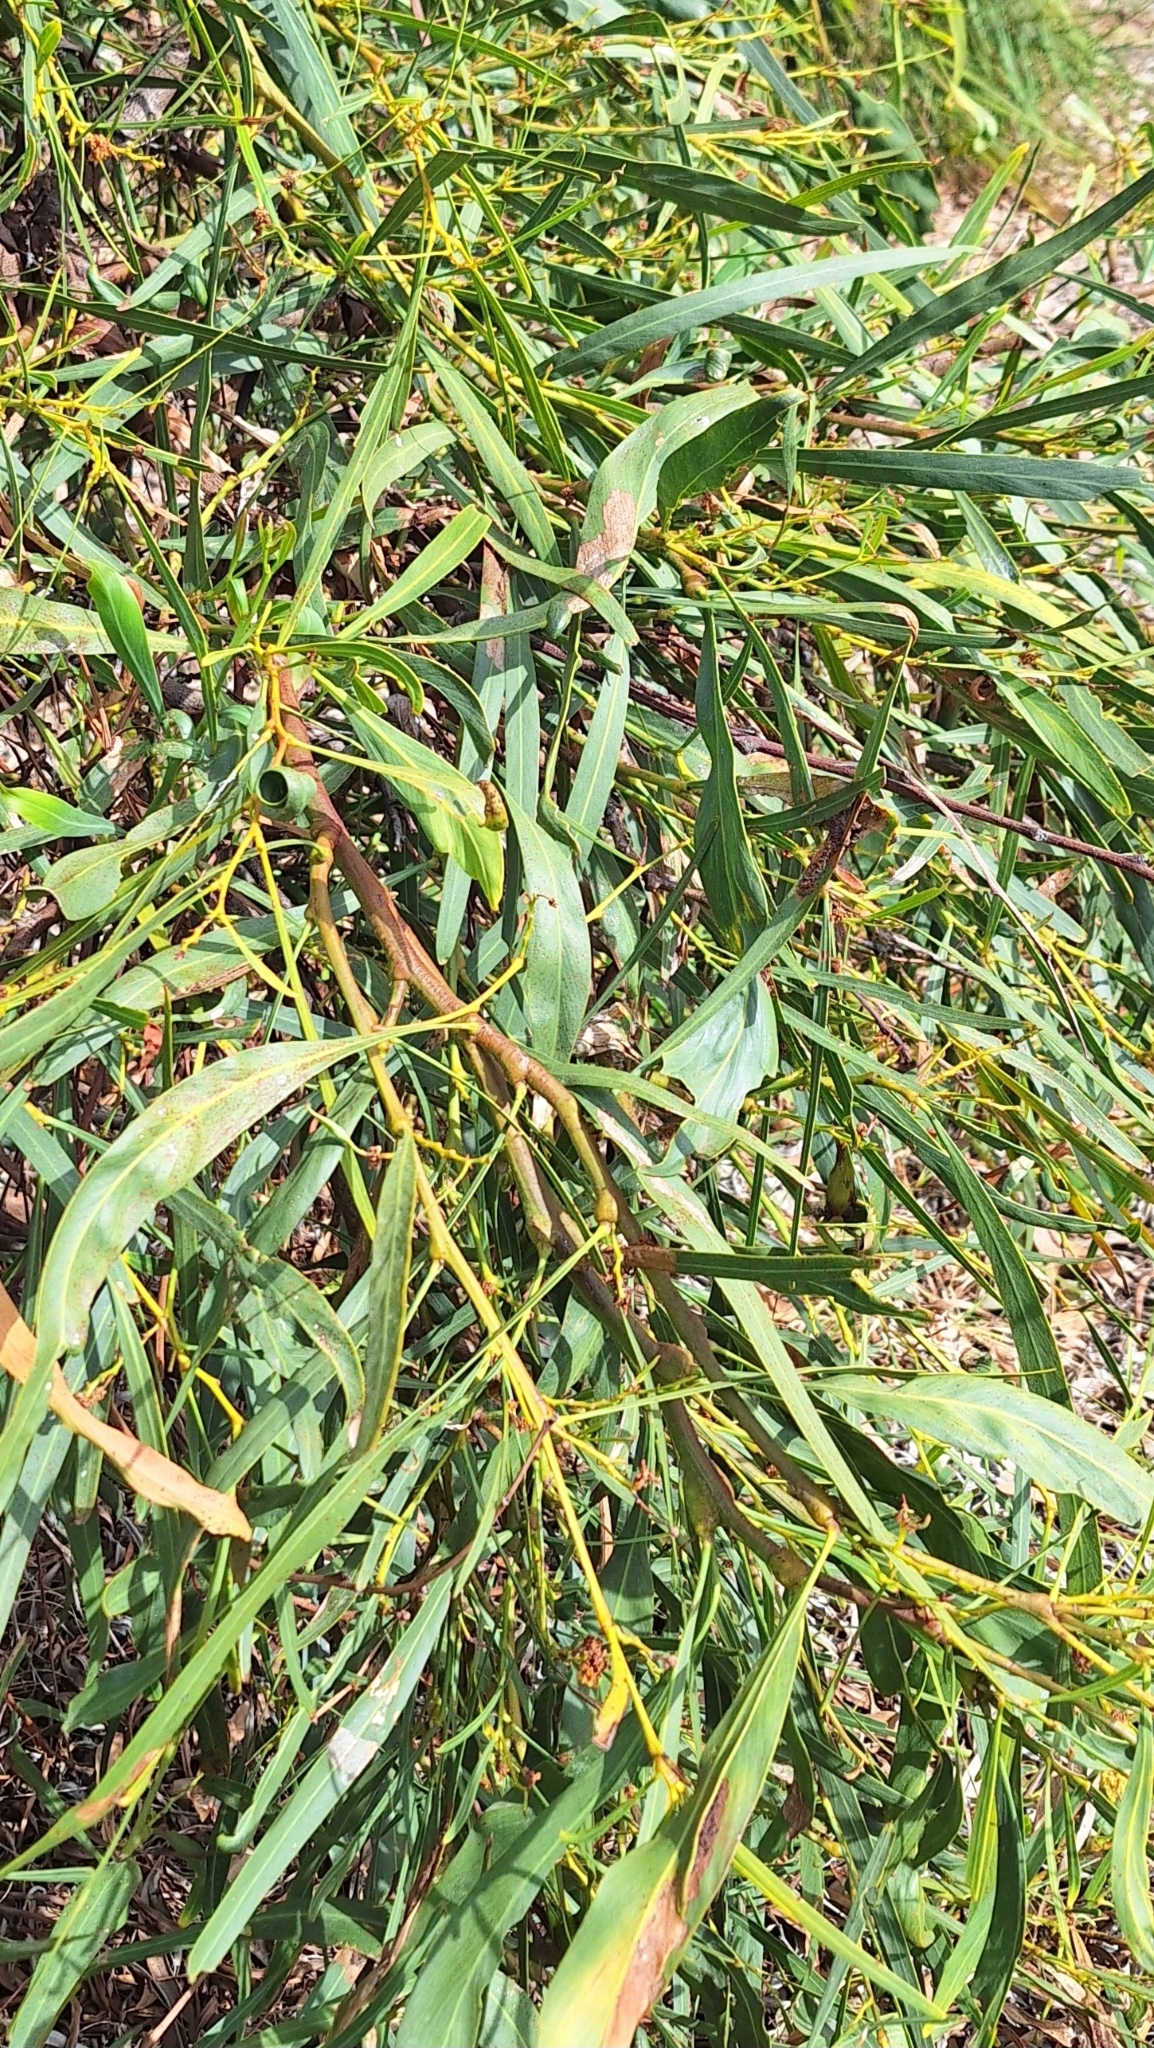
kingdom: Plantae
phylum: Tracheophyta
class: Magnoliopsida
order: Fabales
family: Fabaceae
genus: Acacia
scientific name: Acacia saligna
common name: Orange wattle
